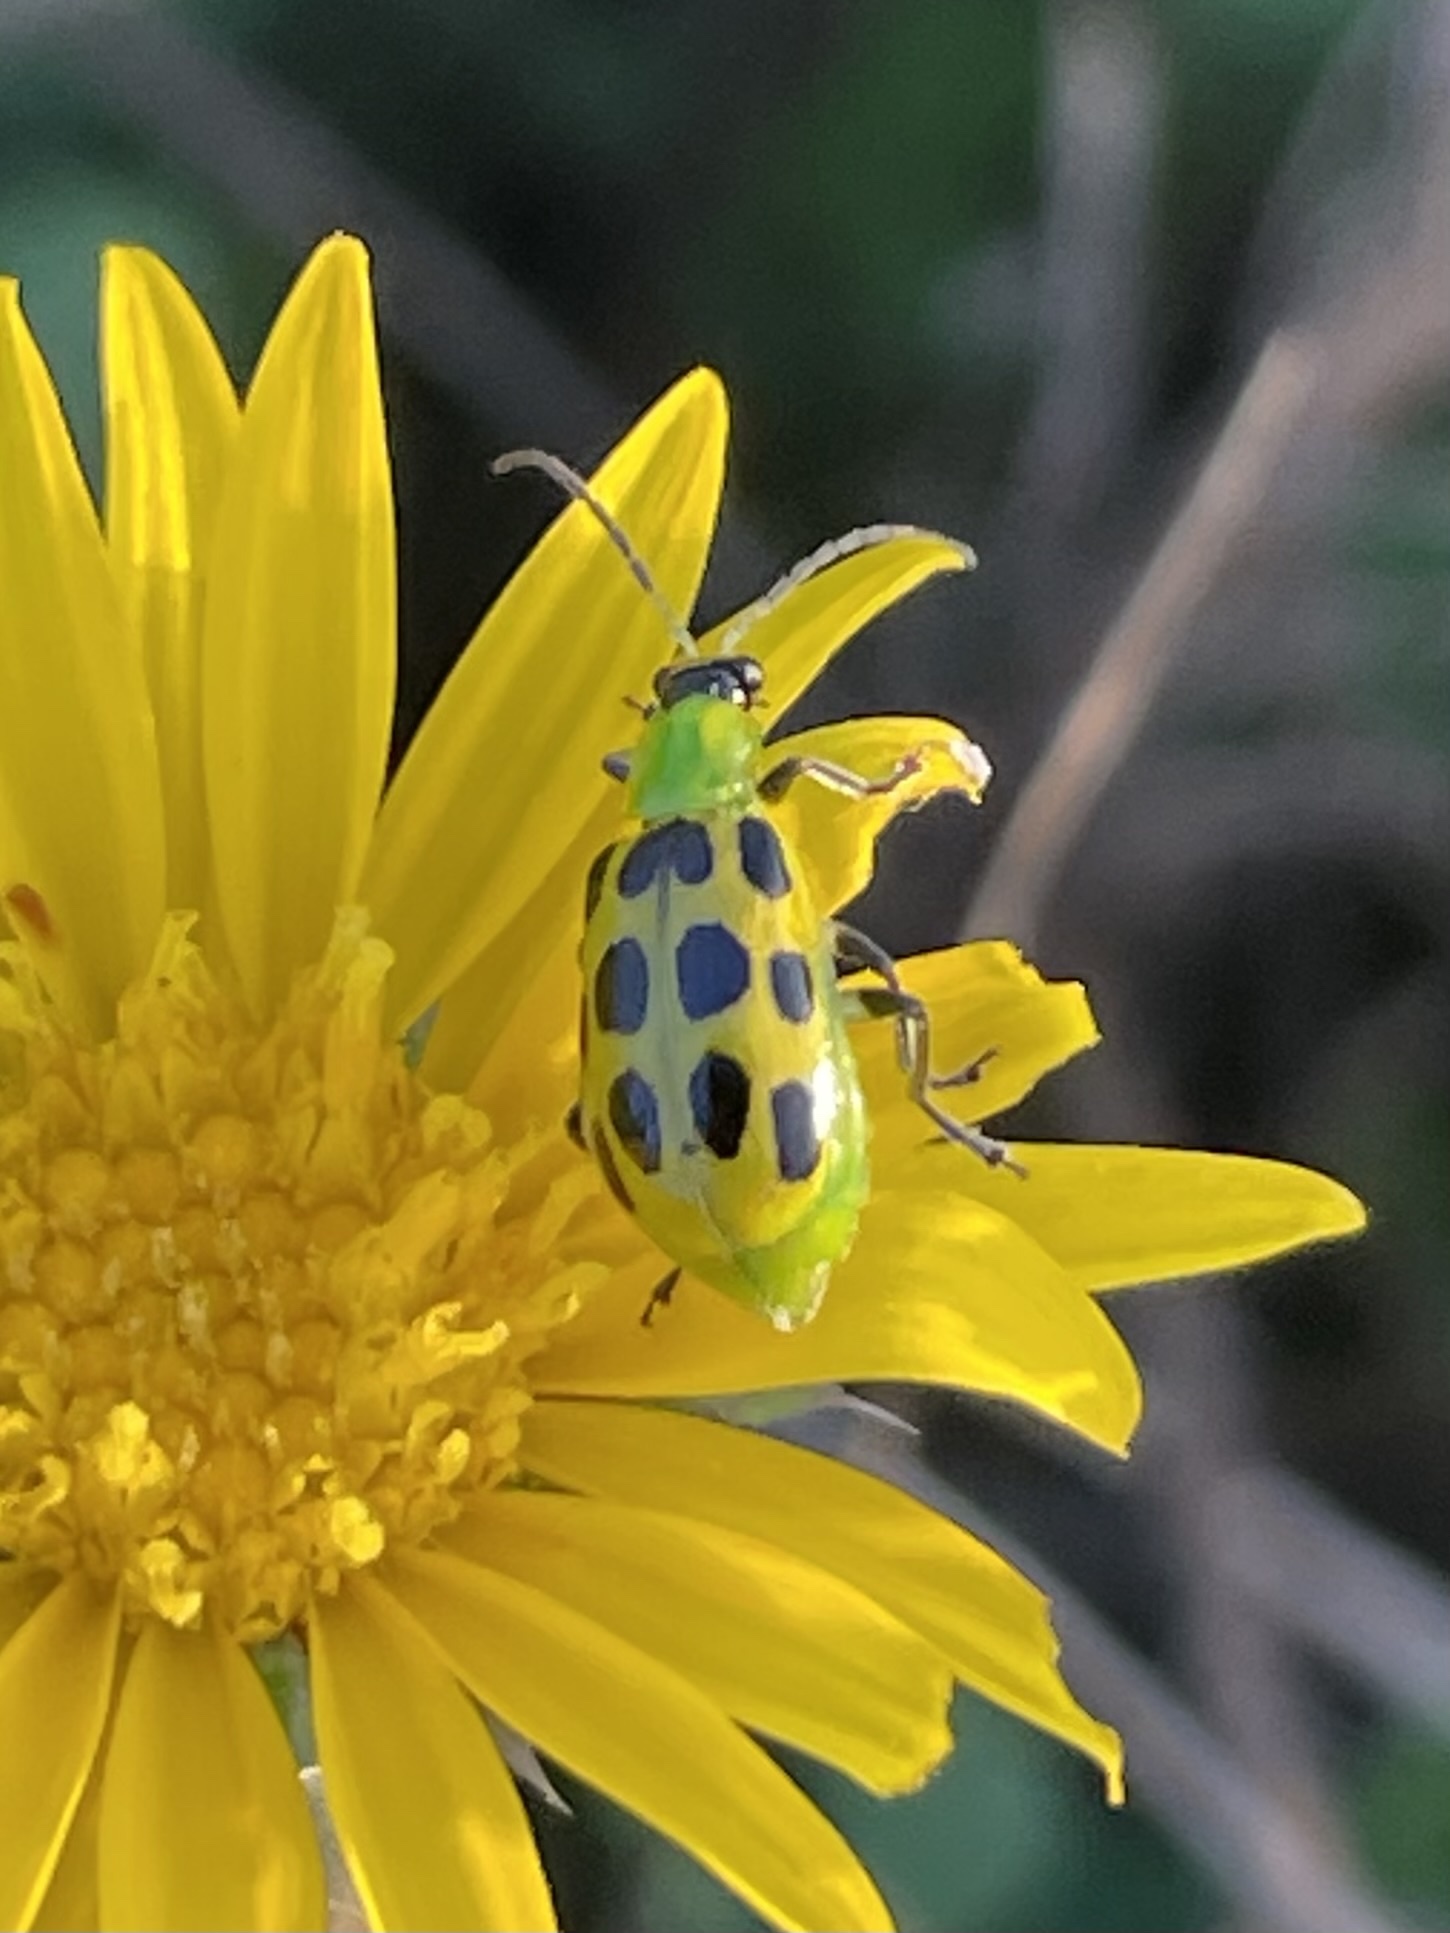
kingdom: Animalia
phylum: Arthropoda
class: Insecta
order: Coleoptera
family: Chrysomelidae
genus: Diabrotica
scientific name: Diabrotica undecimpunctata
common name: Spotted cucumber beetle
